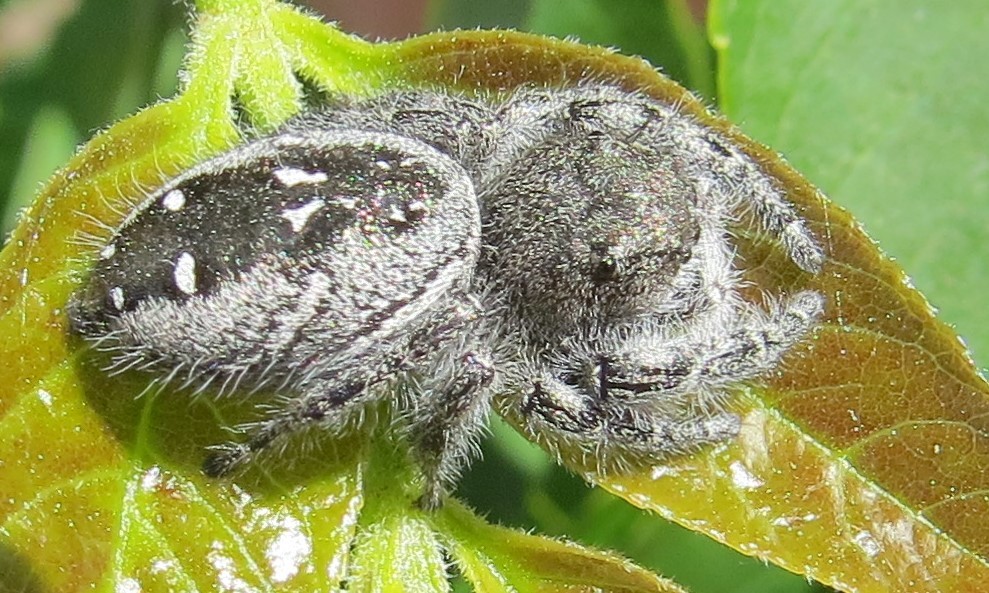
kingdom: Animalia
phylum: Arthropoda
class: Arachnida
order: Araneae
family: Salticidae
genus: Phidippus
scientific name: Phidippus purpuratus
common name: Marbled purple jumping spider
